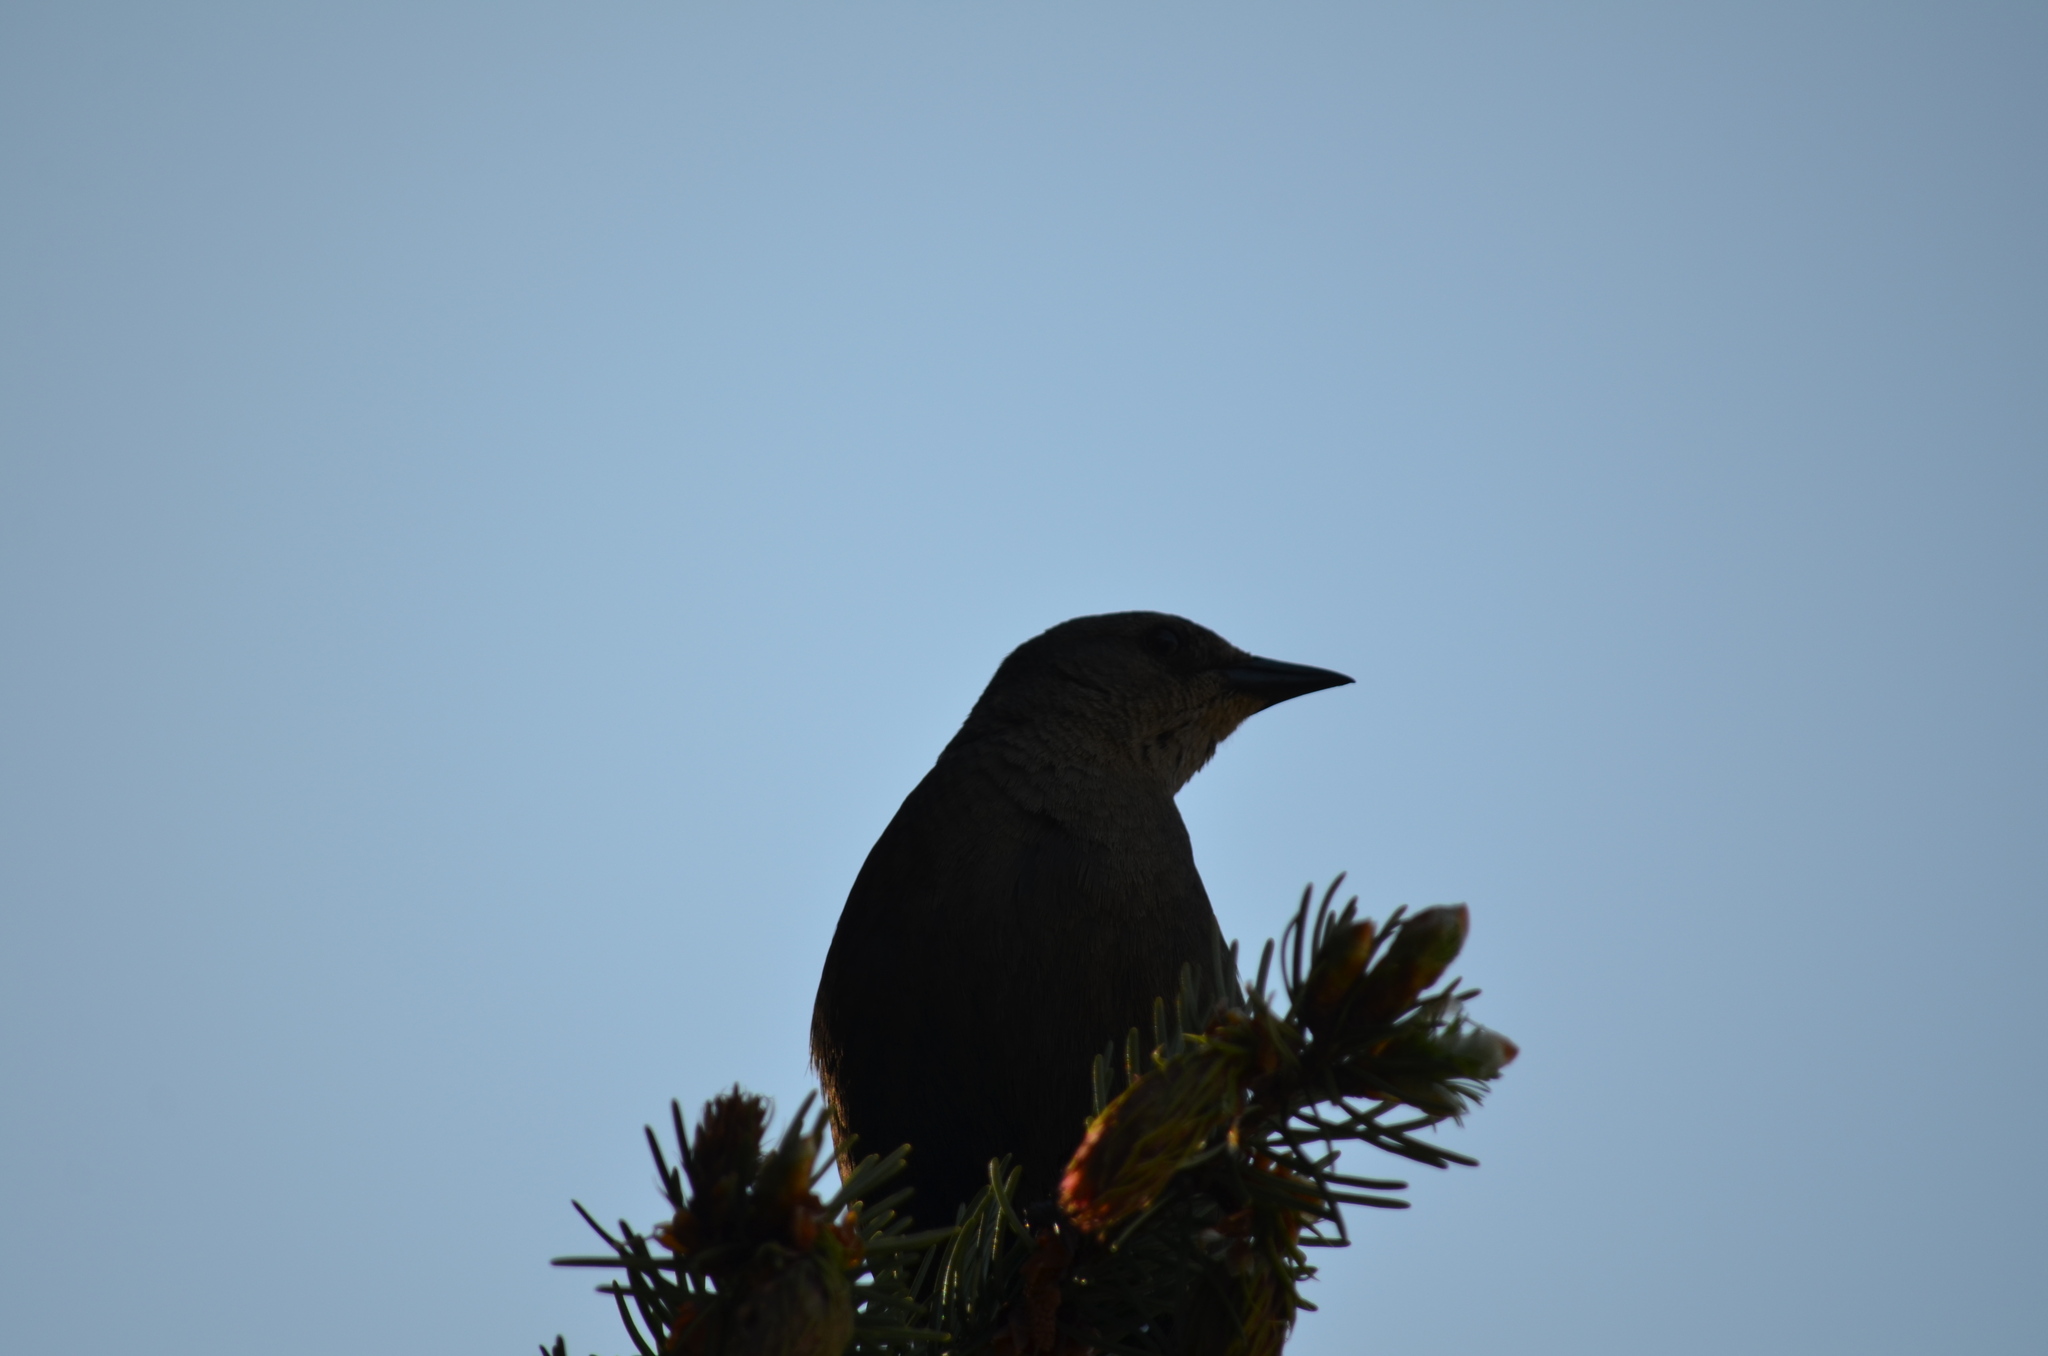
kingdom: Animalia
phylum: Chordata
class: Aves
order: Passeriformes
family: Icteridae
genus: Euphagus
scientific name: Euphagus cyanocephalus
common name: Brewer's blackbird
